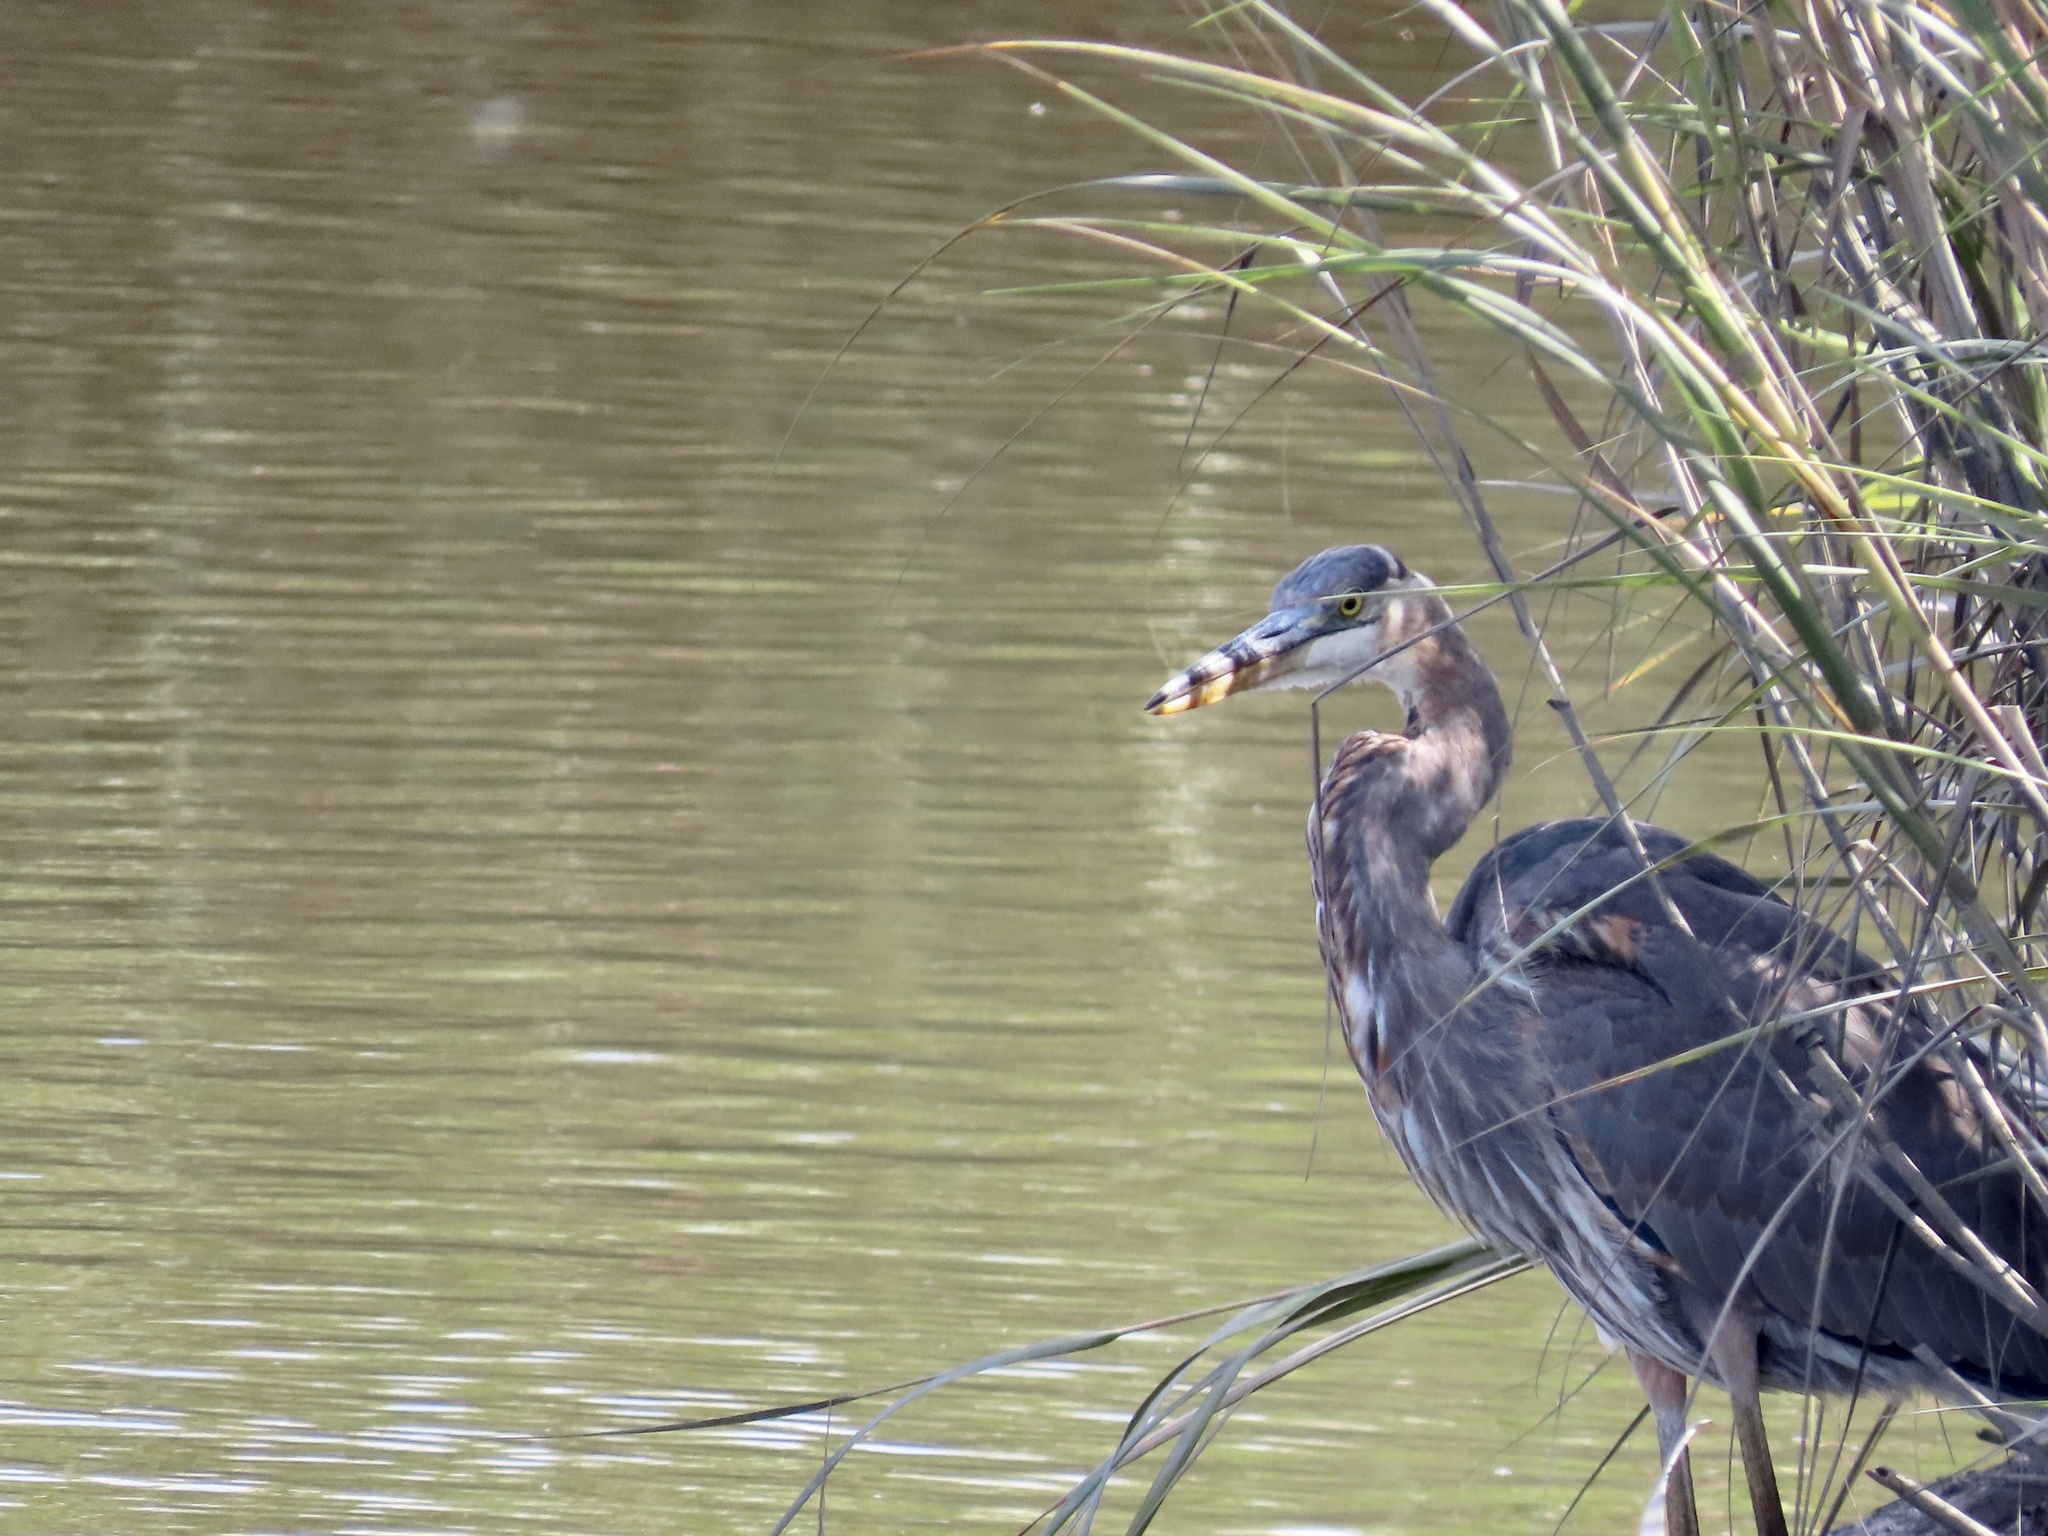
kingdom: Animalia
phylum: Chordata
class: Aves
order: Pelecaniformes
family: Ardeidae
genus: Ardea
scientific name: Ardea herodias
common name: Great blue heron
